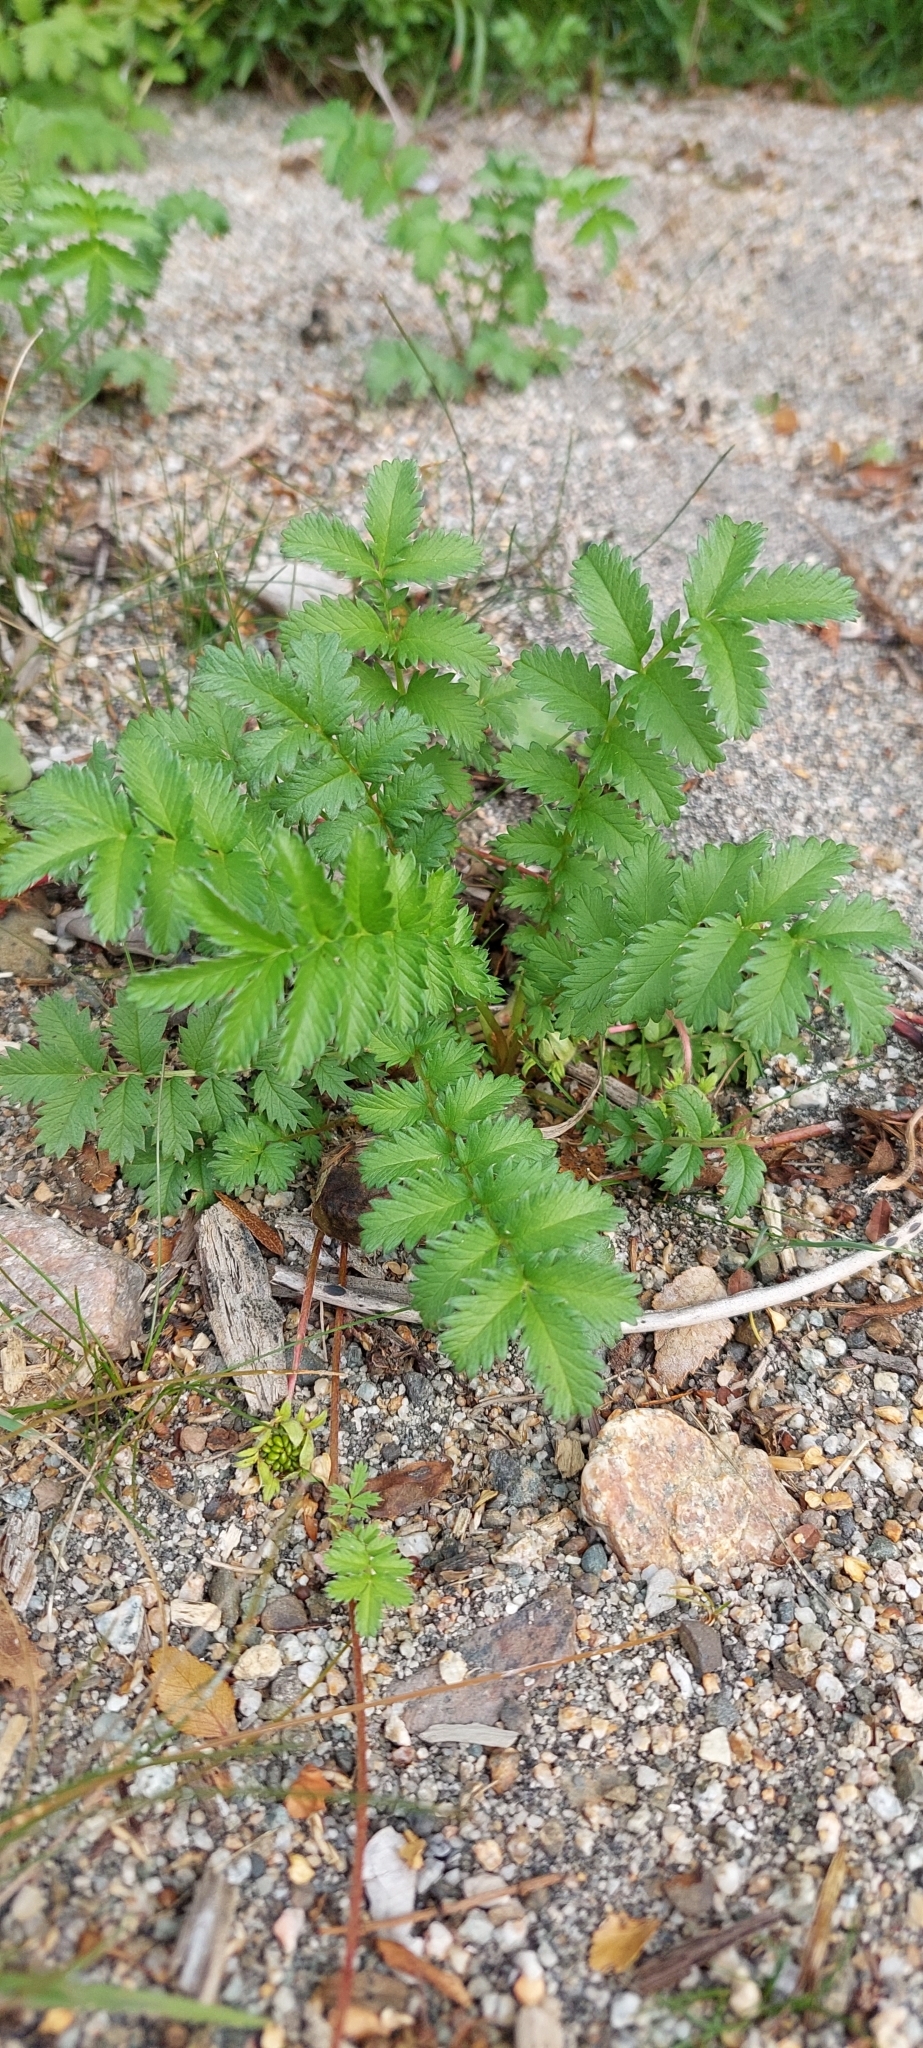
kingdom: Plantae
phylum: Tracheophyta
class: Magnoliopsida
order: Rosales
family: Rosaceae
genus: Argentina
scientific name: Argentina anserina
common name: Common silverweed
